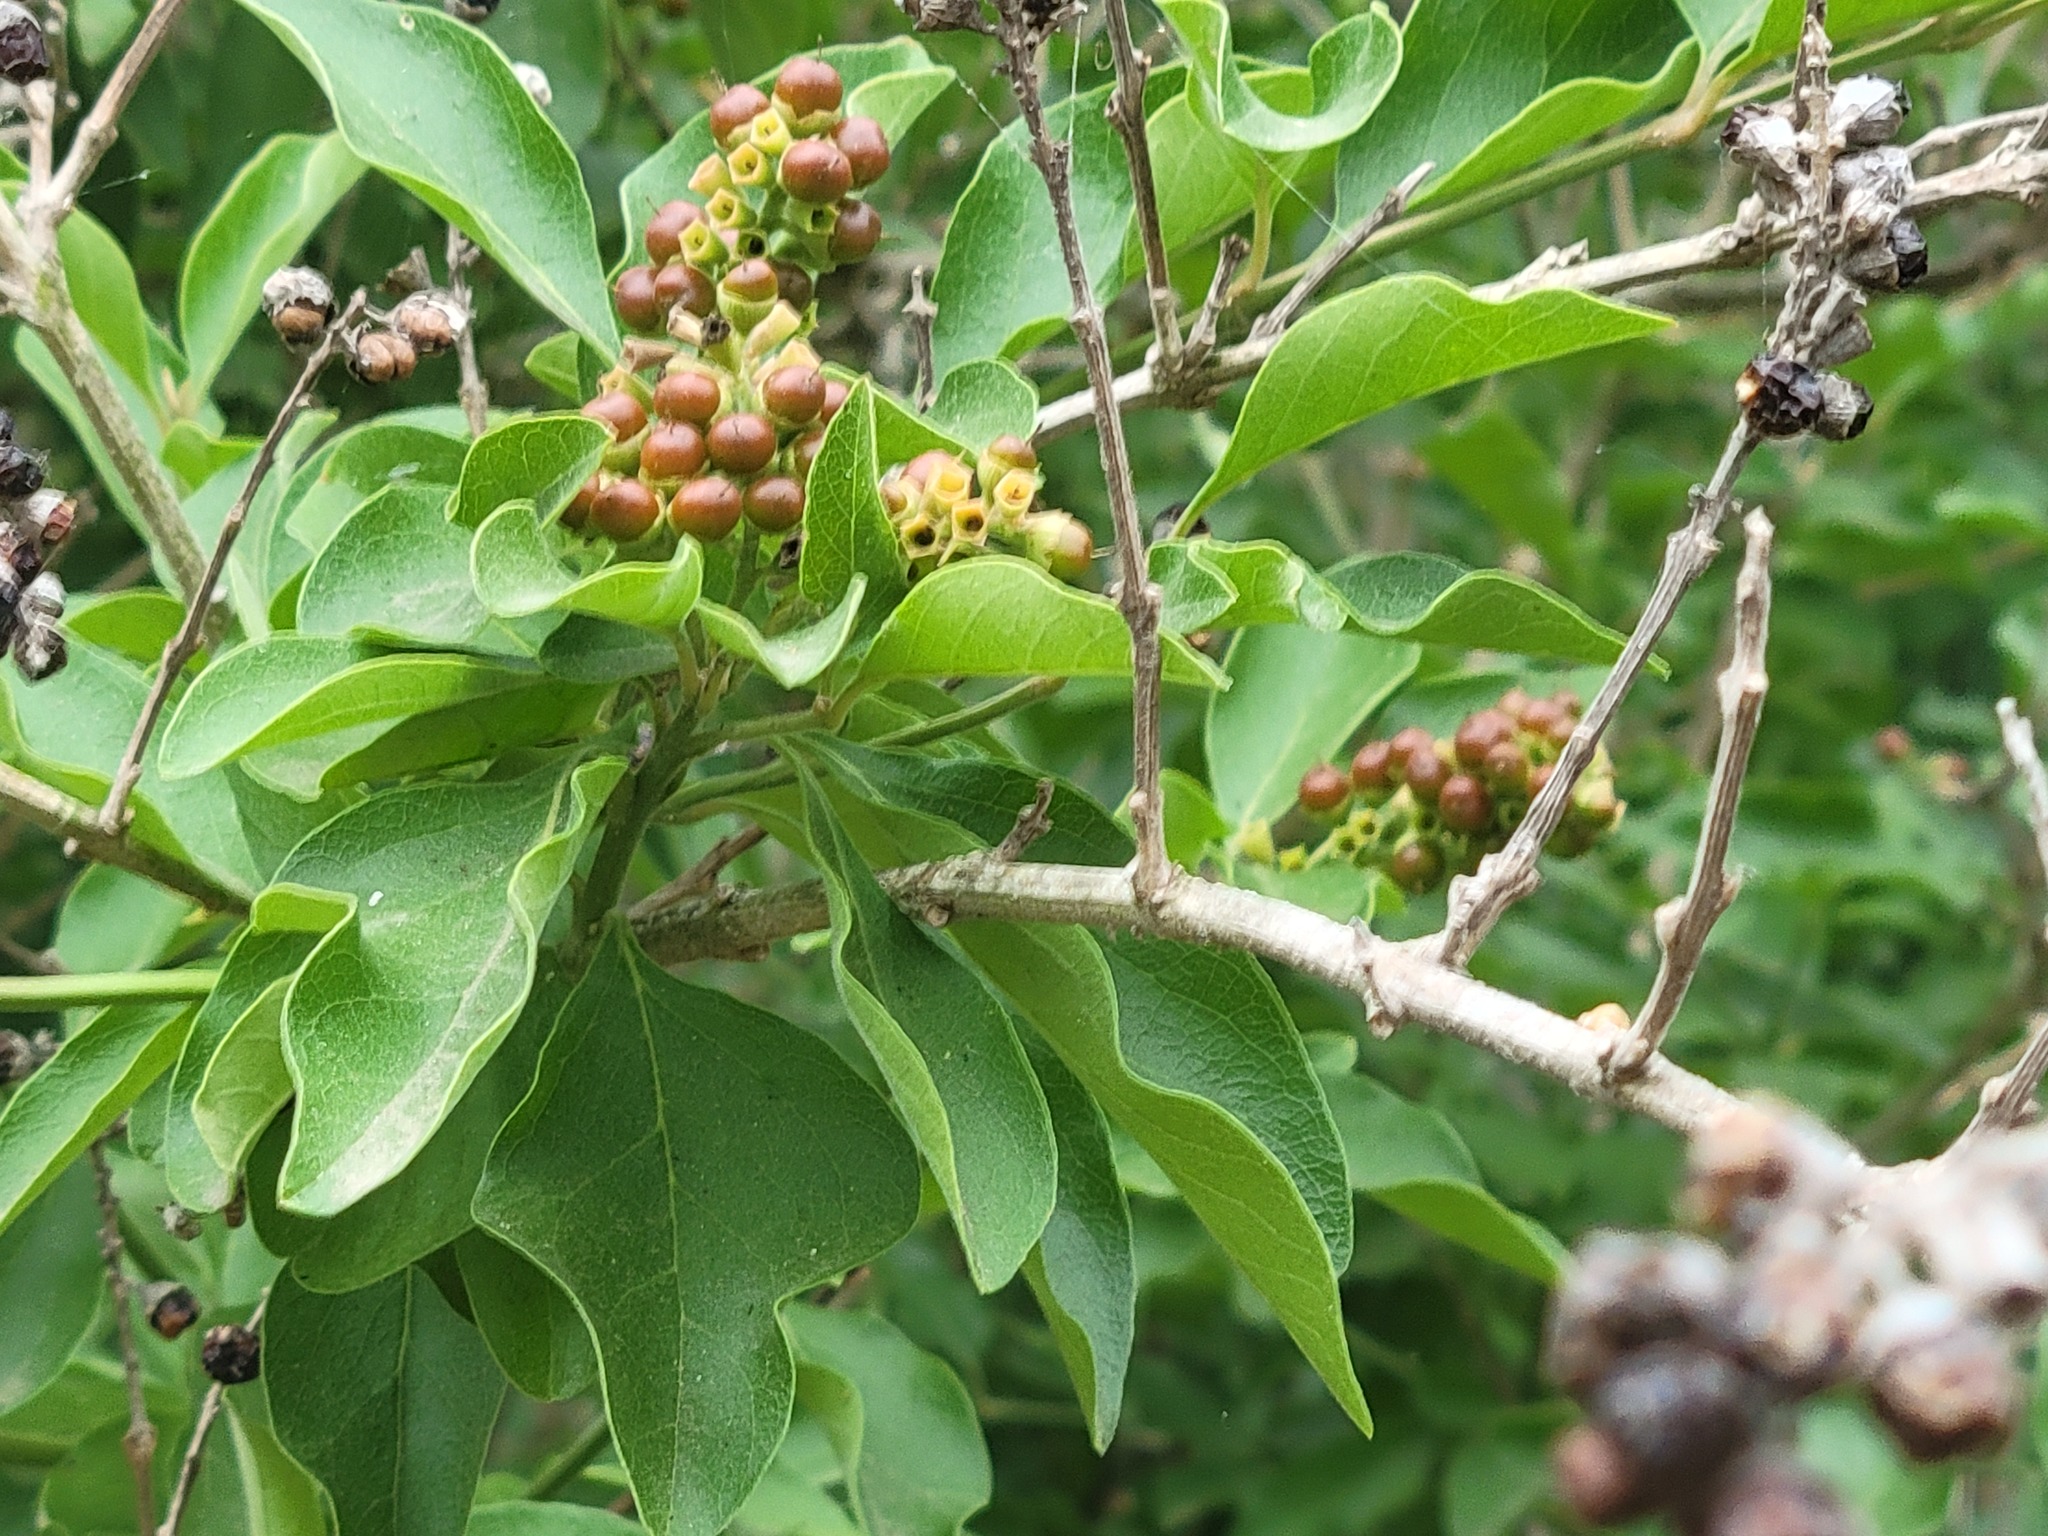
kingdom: Plantae
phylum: Tracheophyta
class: Magnoliopsida
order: Lamiales
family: Verbenaceae
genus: Citharexylum
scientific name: Citharexylum berlandieri
